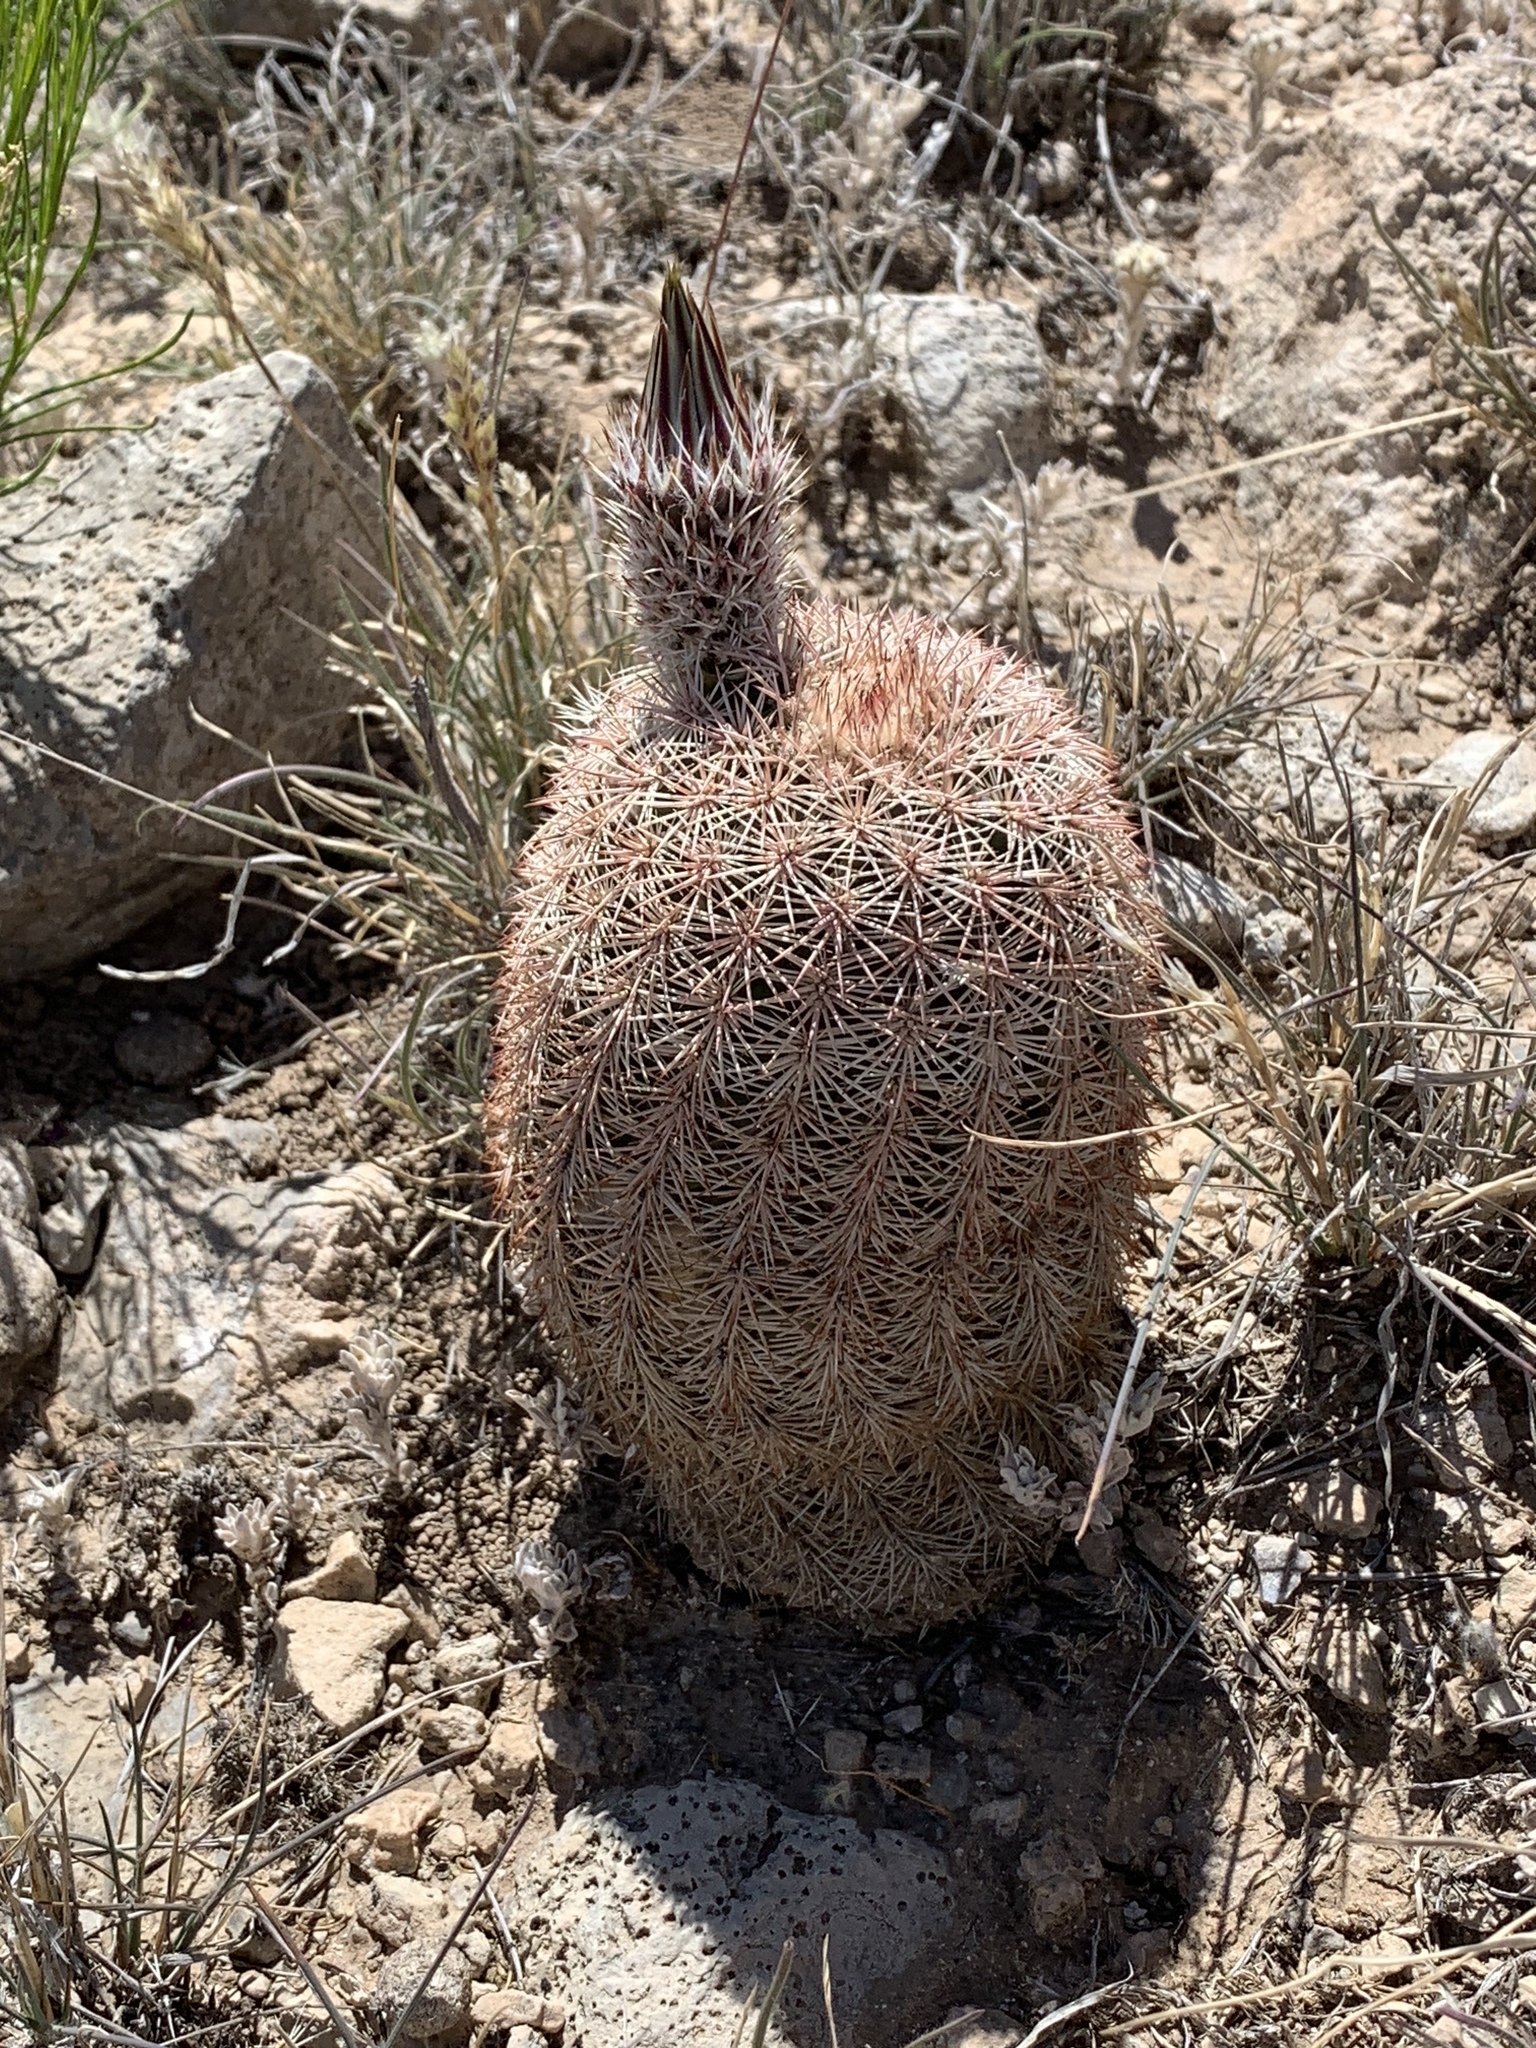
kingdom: Plantae
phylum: Tracheophyta
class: Magnoliopsida
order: Caryophyllales
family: Cactaceae
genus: Echinocereus
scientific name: Echinocereus dasyacanthus
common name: Spiny hedgehog cactus
